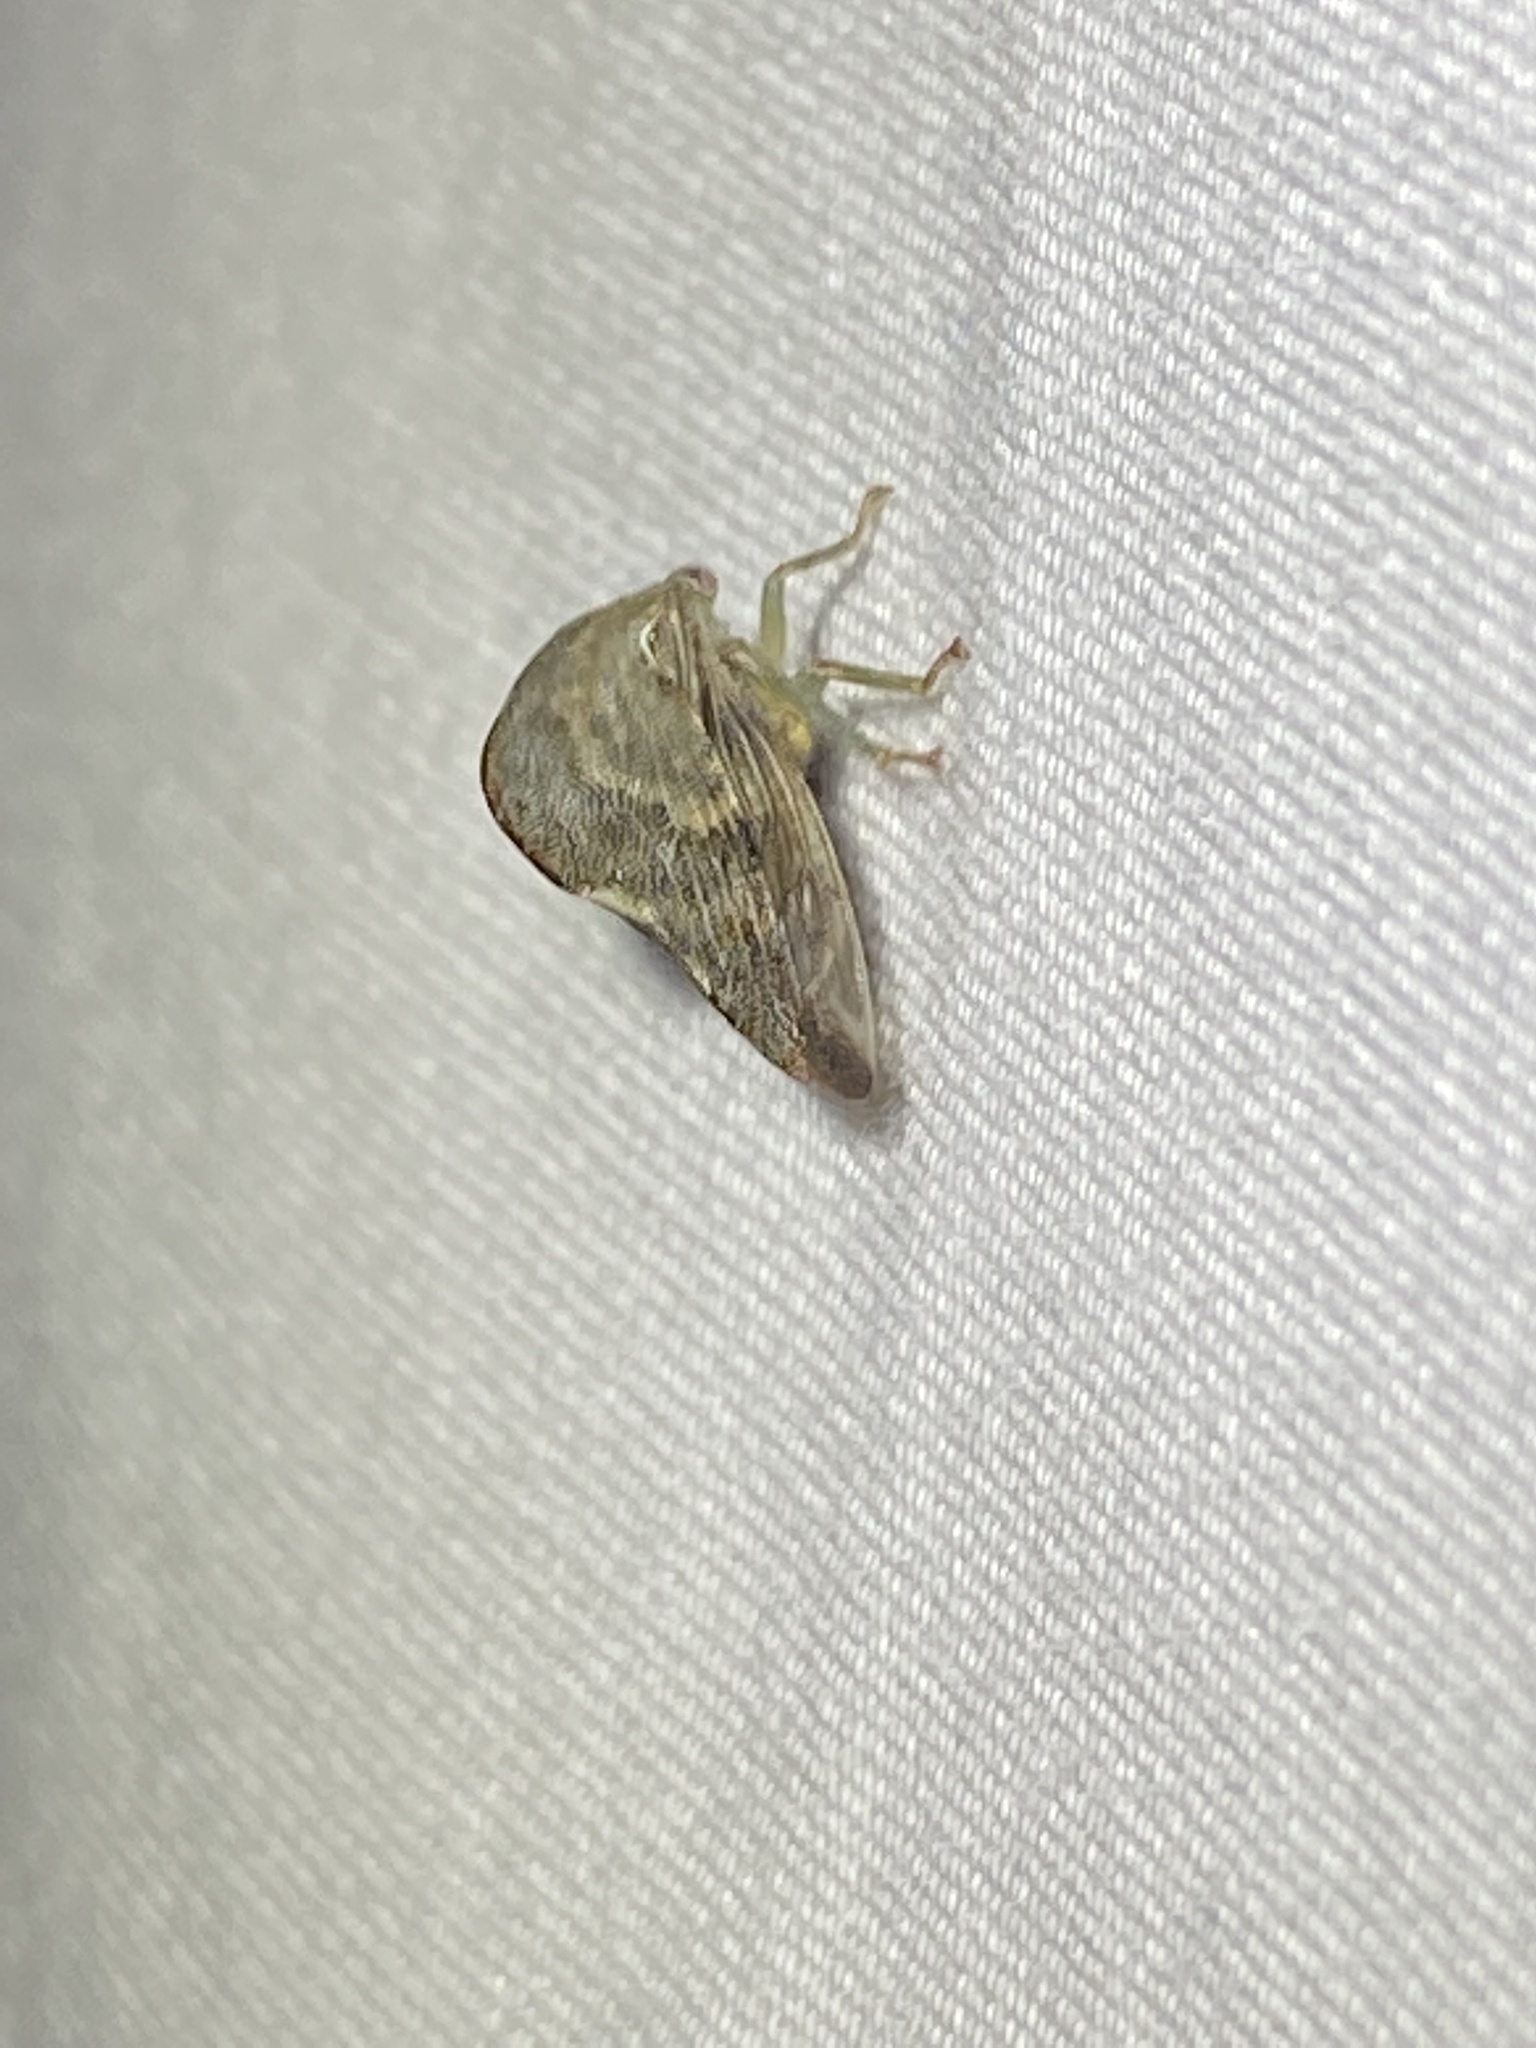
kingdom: Animalia
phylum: Arthropoda
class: Insecta
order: Hemiptera
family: Membracidae
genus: Telamona
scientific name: Telamona reclivata
